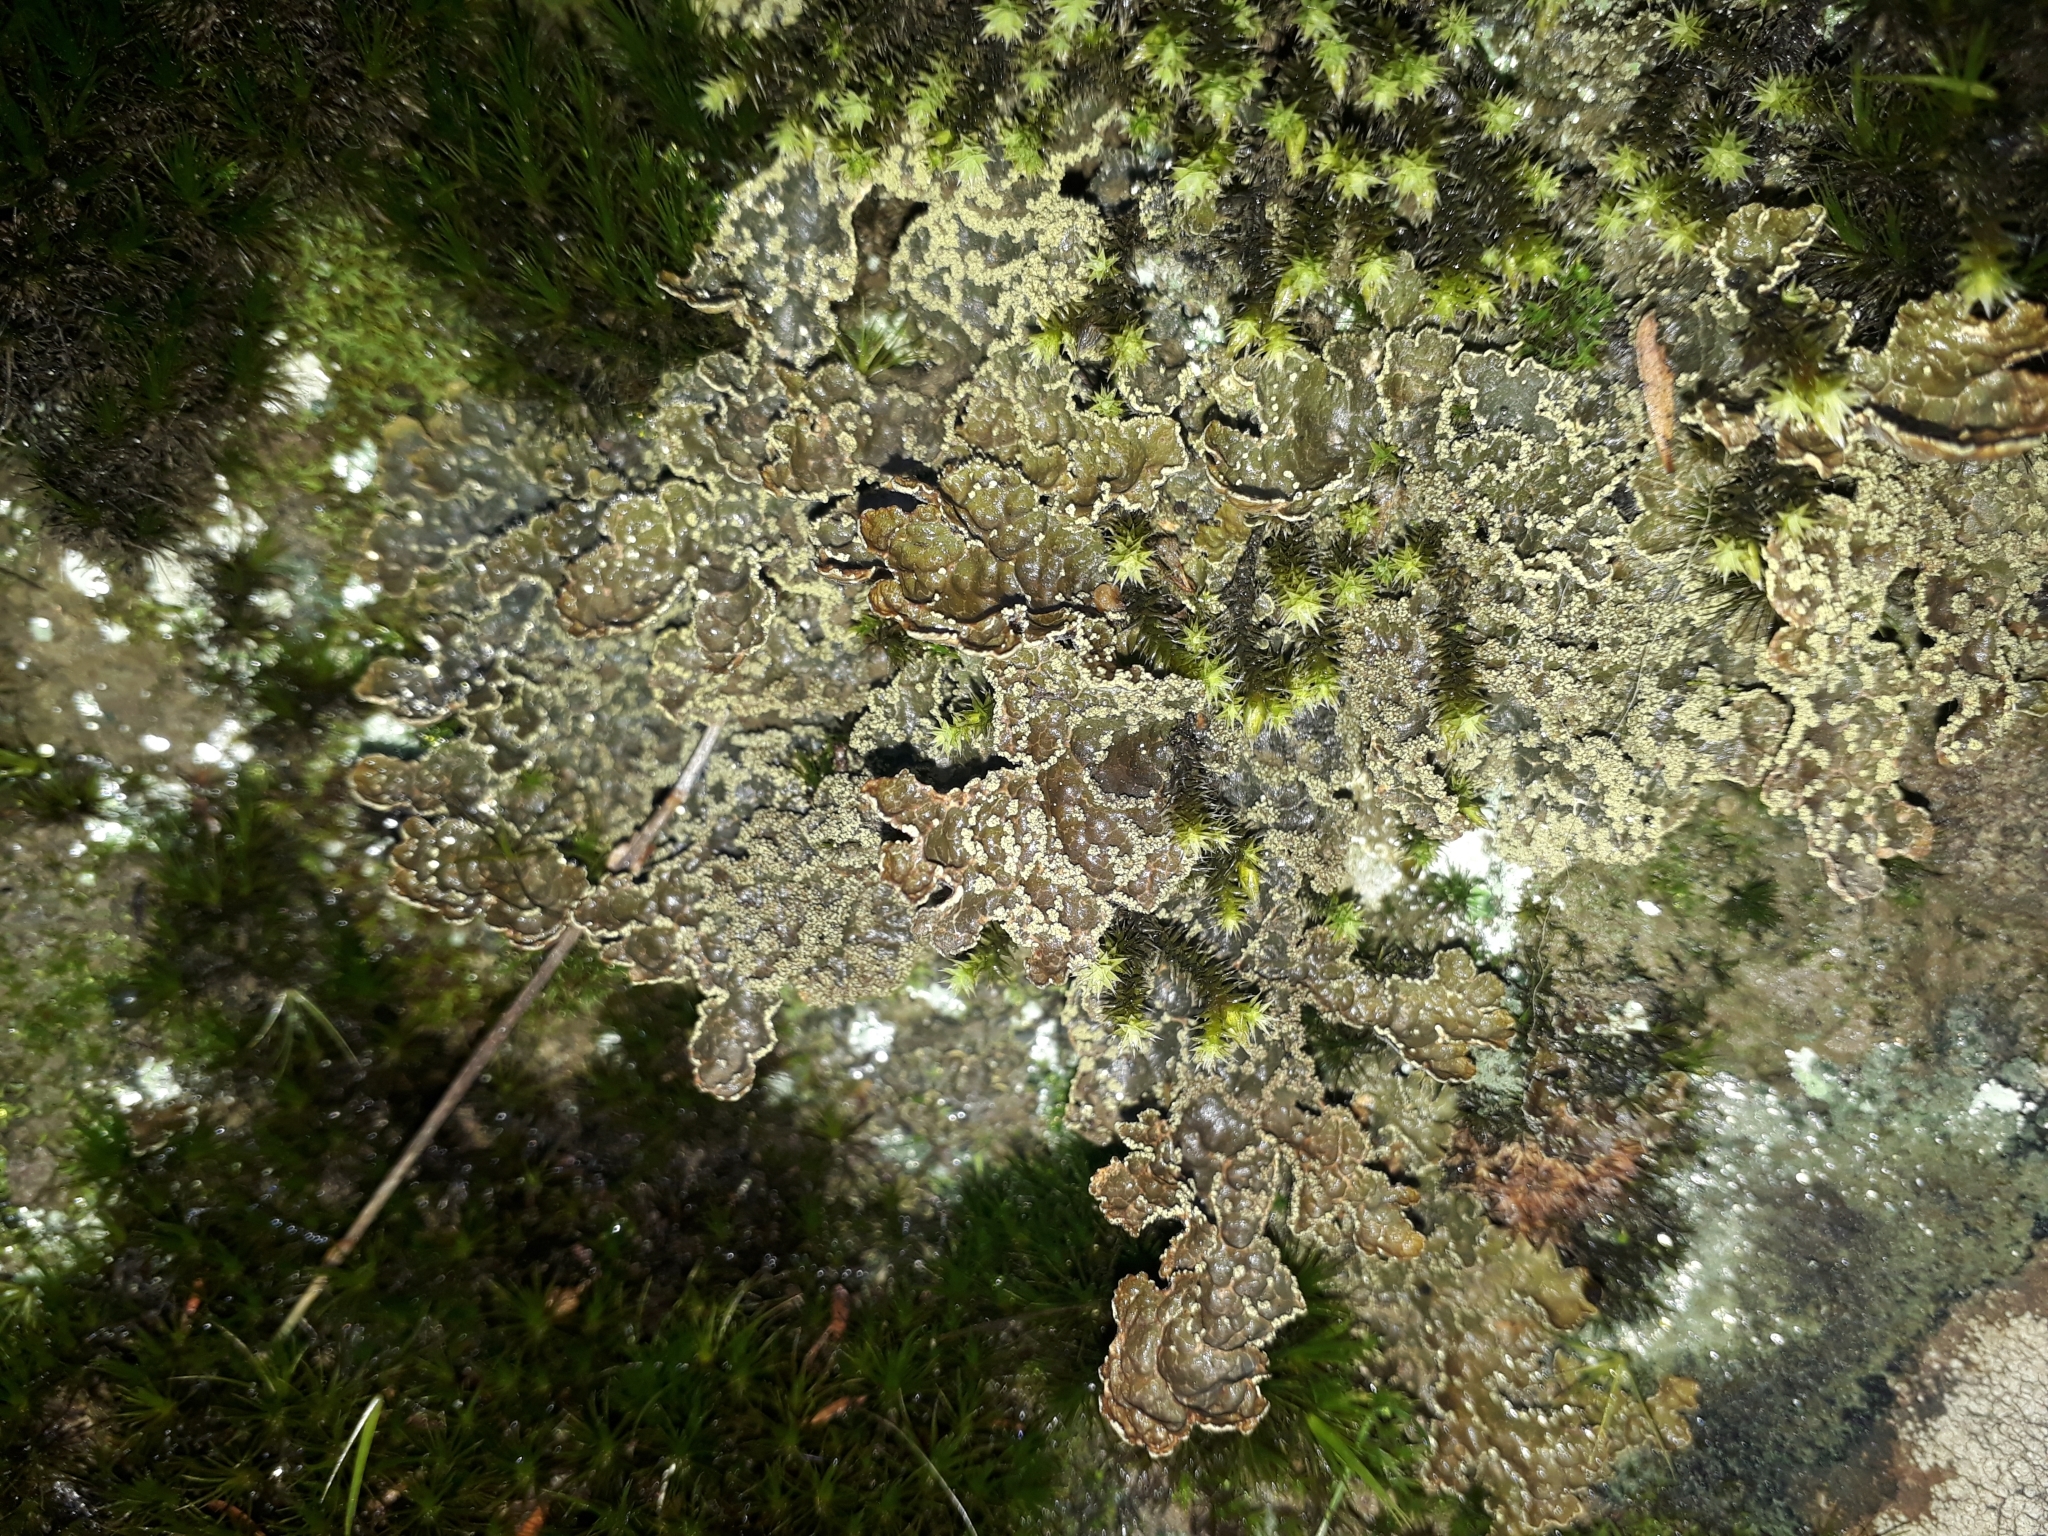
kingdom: Fungi
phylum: Ascomycota
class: Lecanoromycetes
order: Peltigerales
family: Lobariaceae
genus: Pseudocyphellaria
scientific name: Pseudocyphellaria crocata
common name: Golden specklebelly
